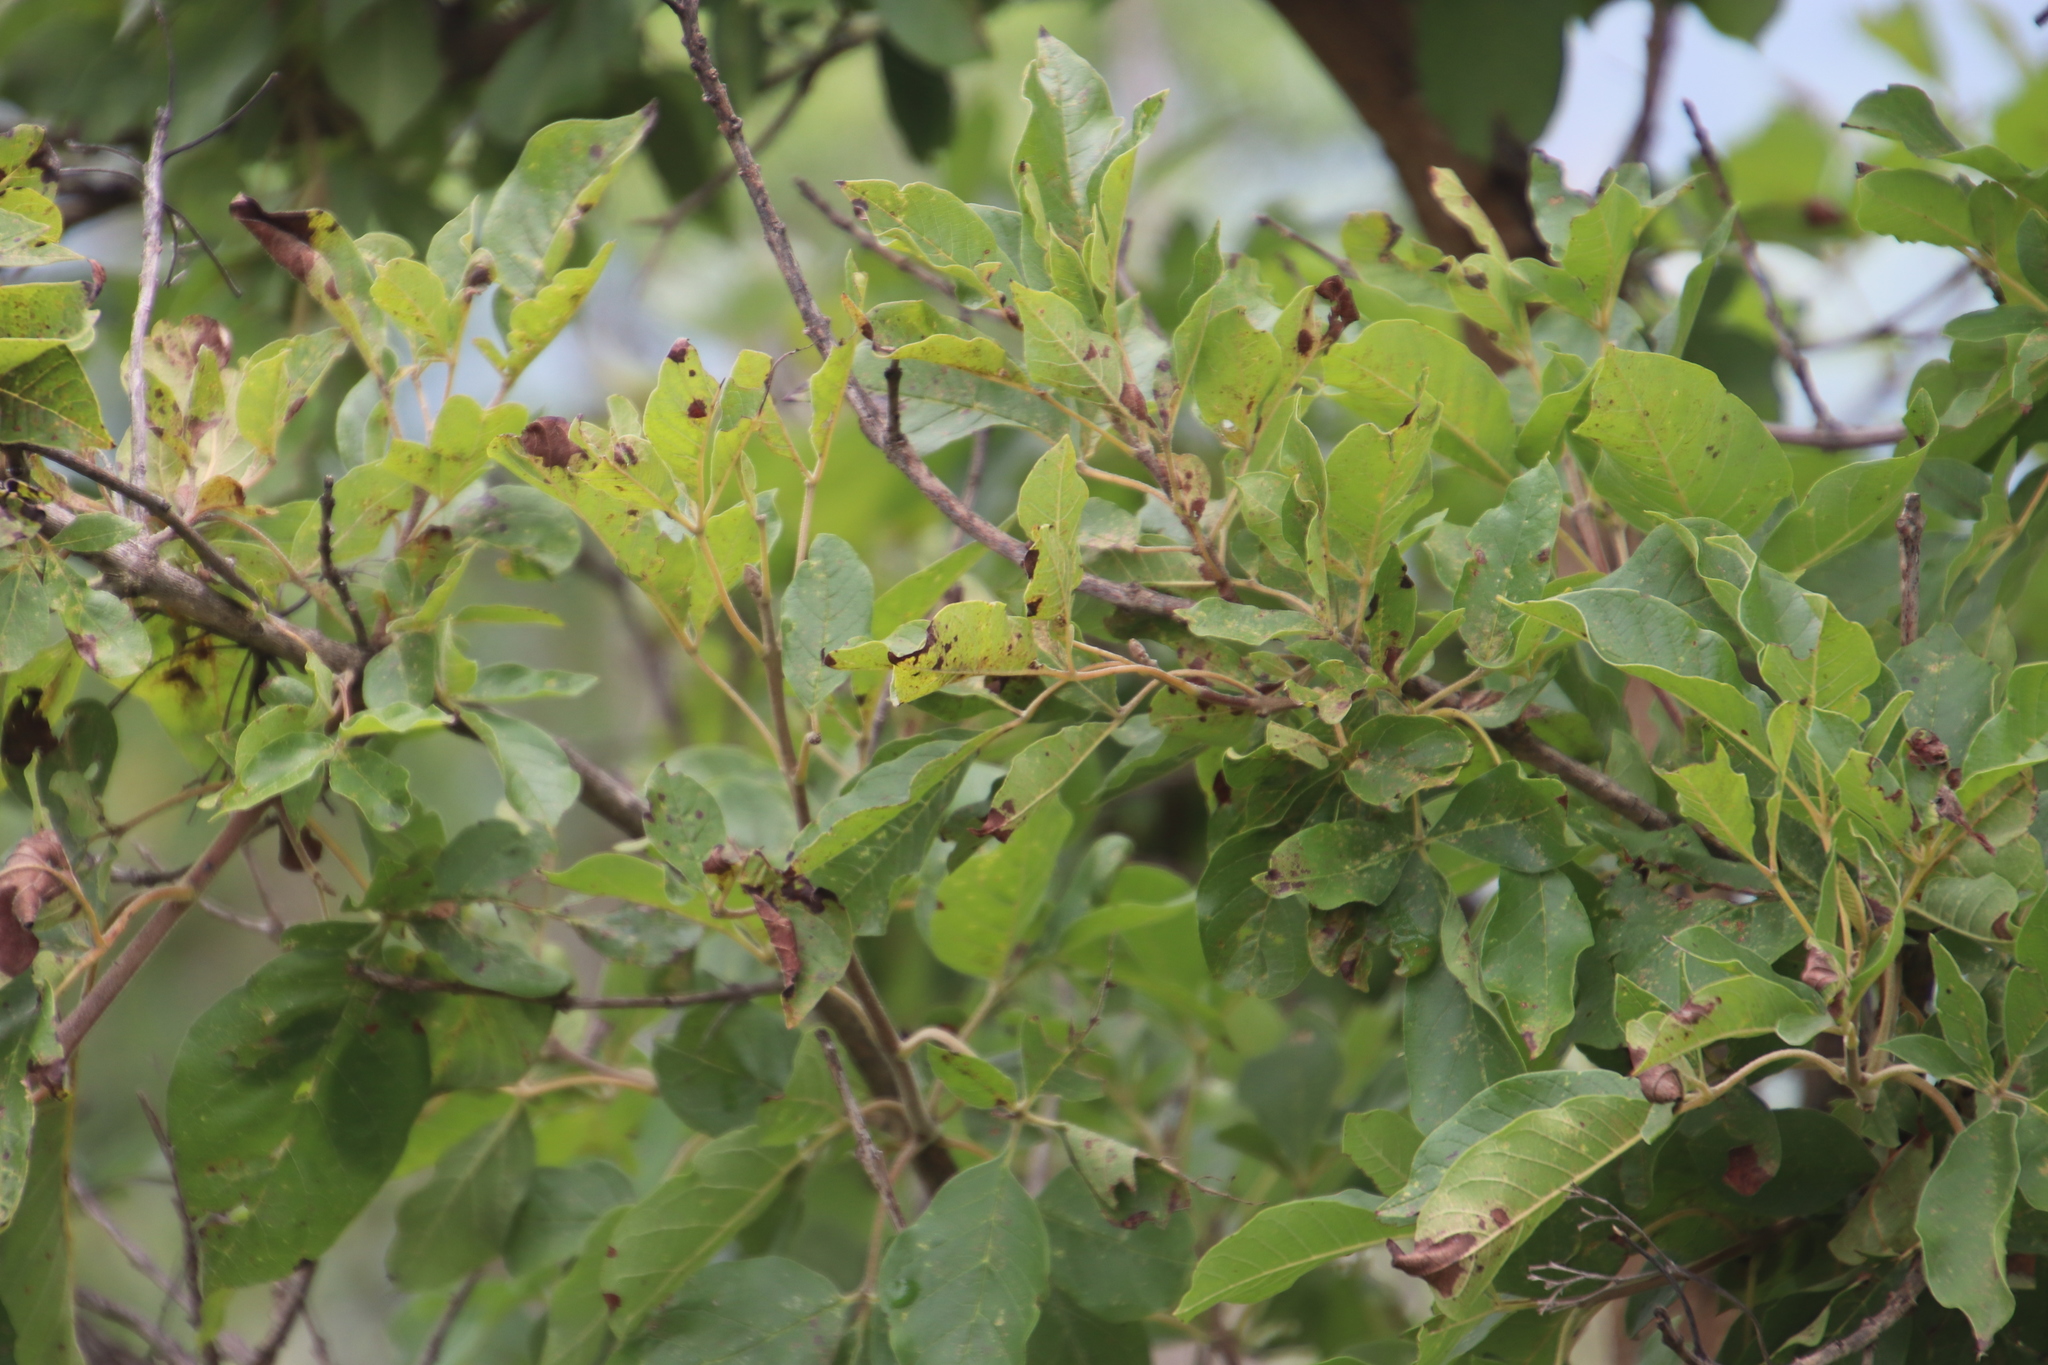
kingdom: Plantae
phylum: Tracheophyta
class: Magnoliopsida
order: Lamiales
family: Lamiaceae
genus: Vitex
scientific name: Vitex obovata
